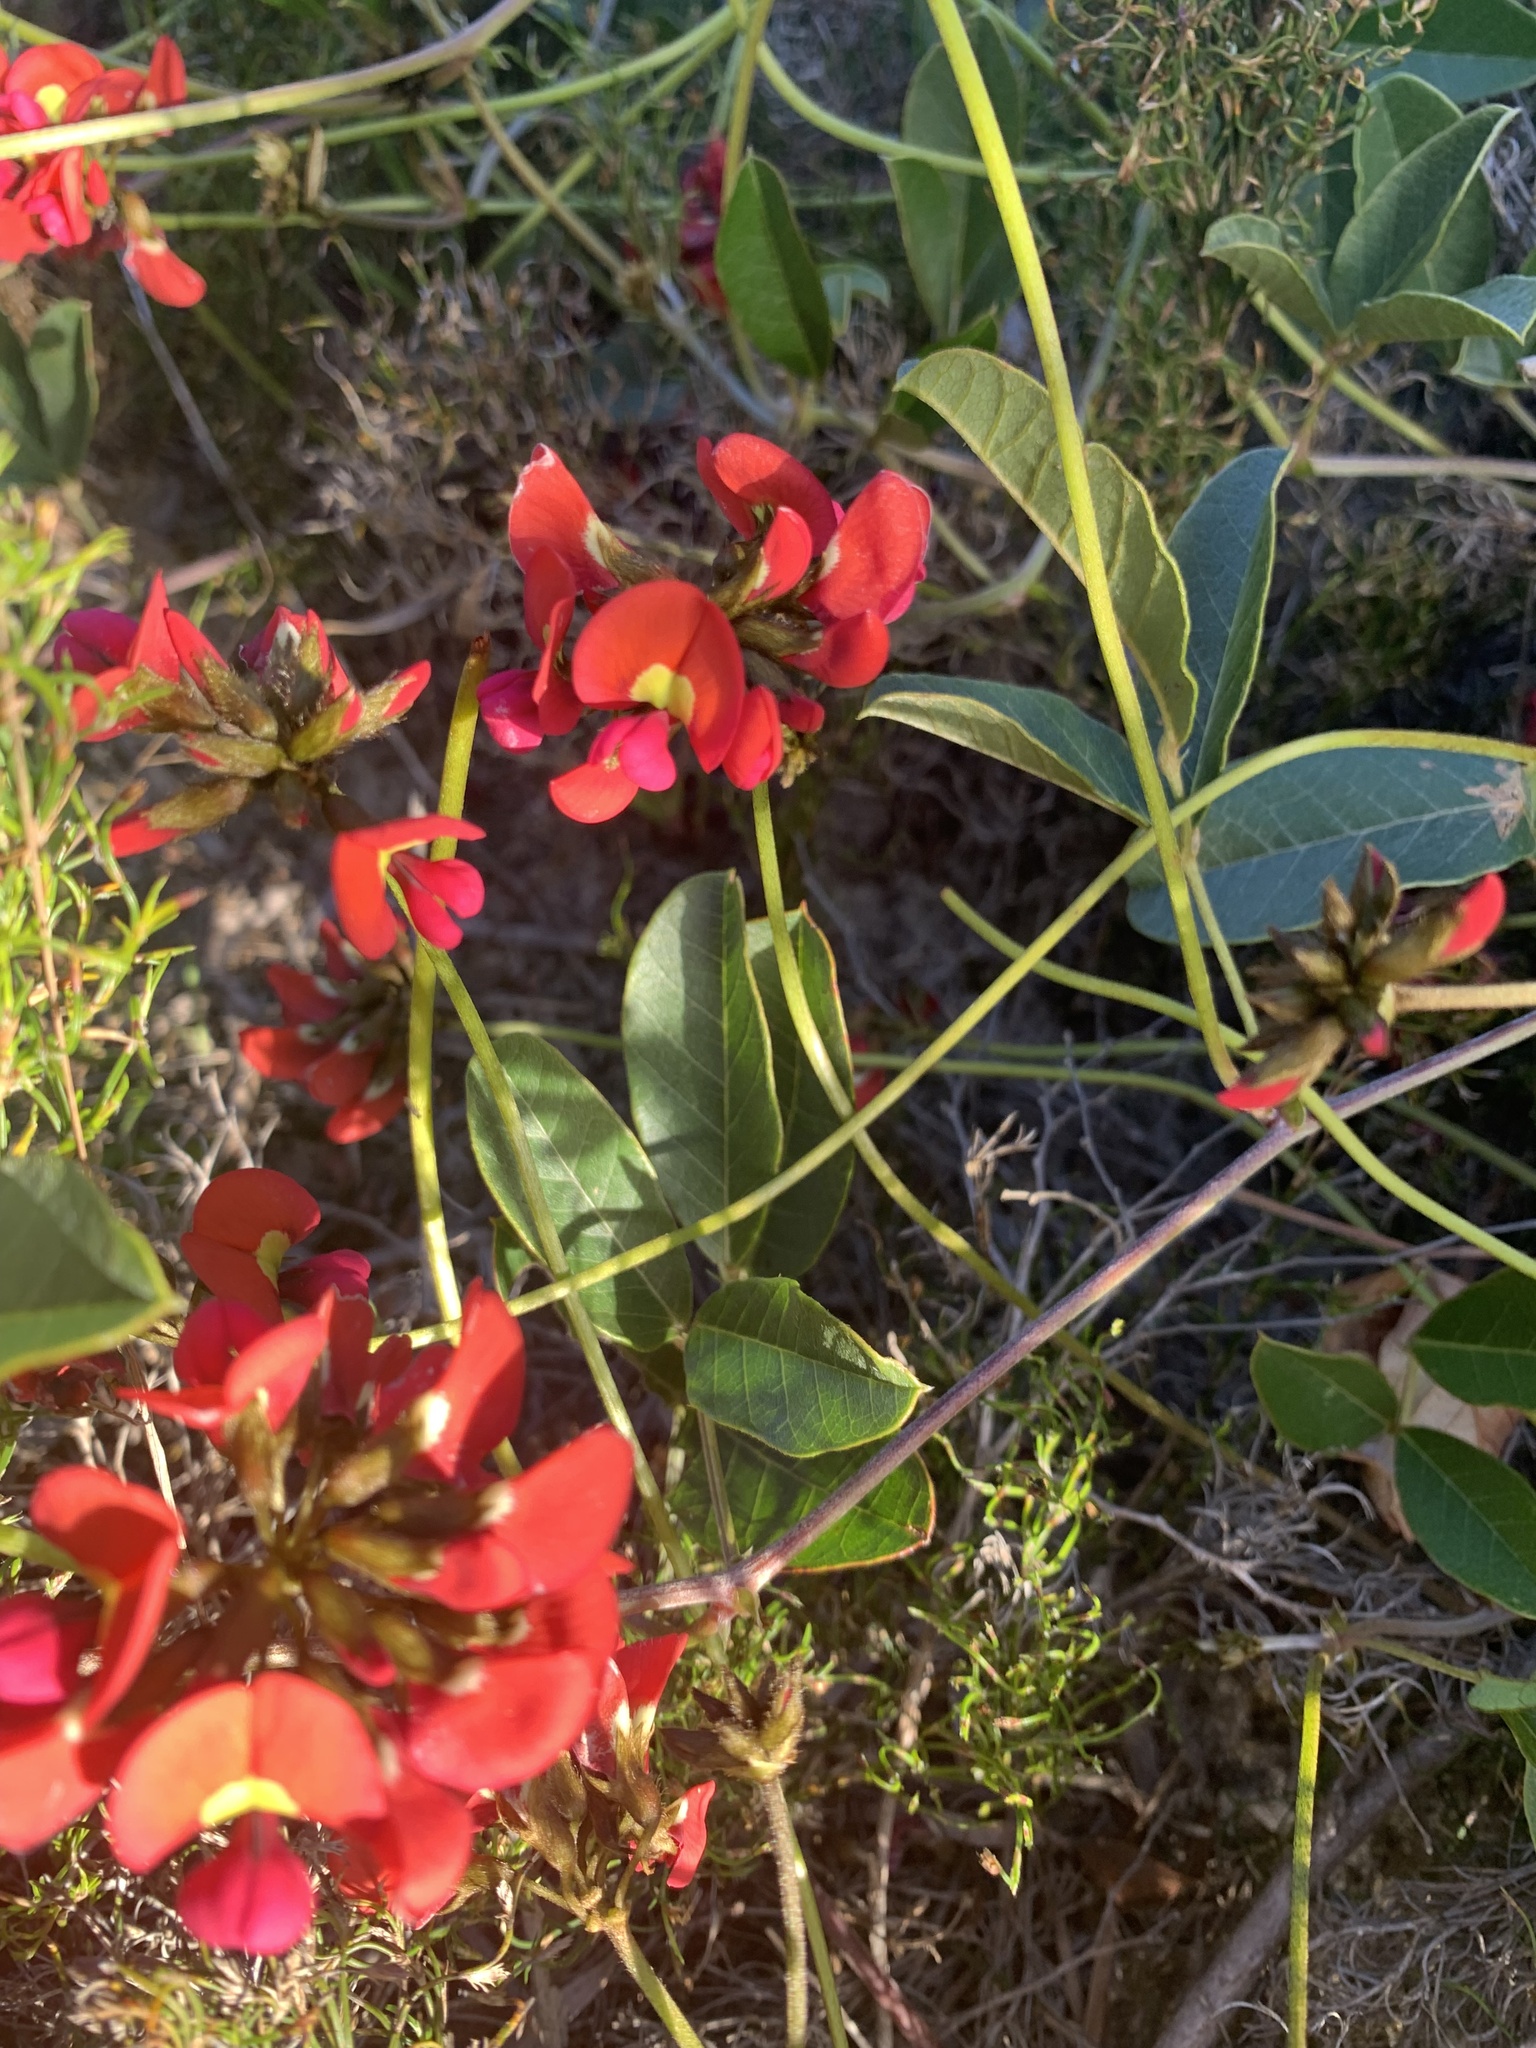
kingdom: Plantae
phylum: Tracheophyta
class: Magnoliopsida
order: Fabales
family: Fabaceae
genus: Kennedia
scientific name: Kennedia coccinea
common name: Coralvine
